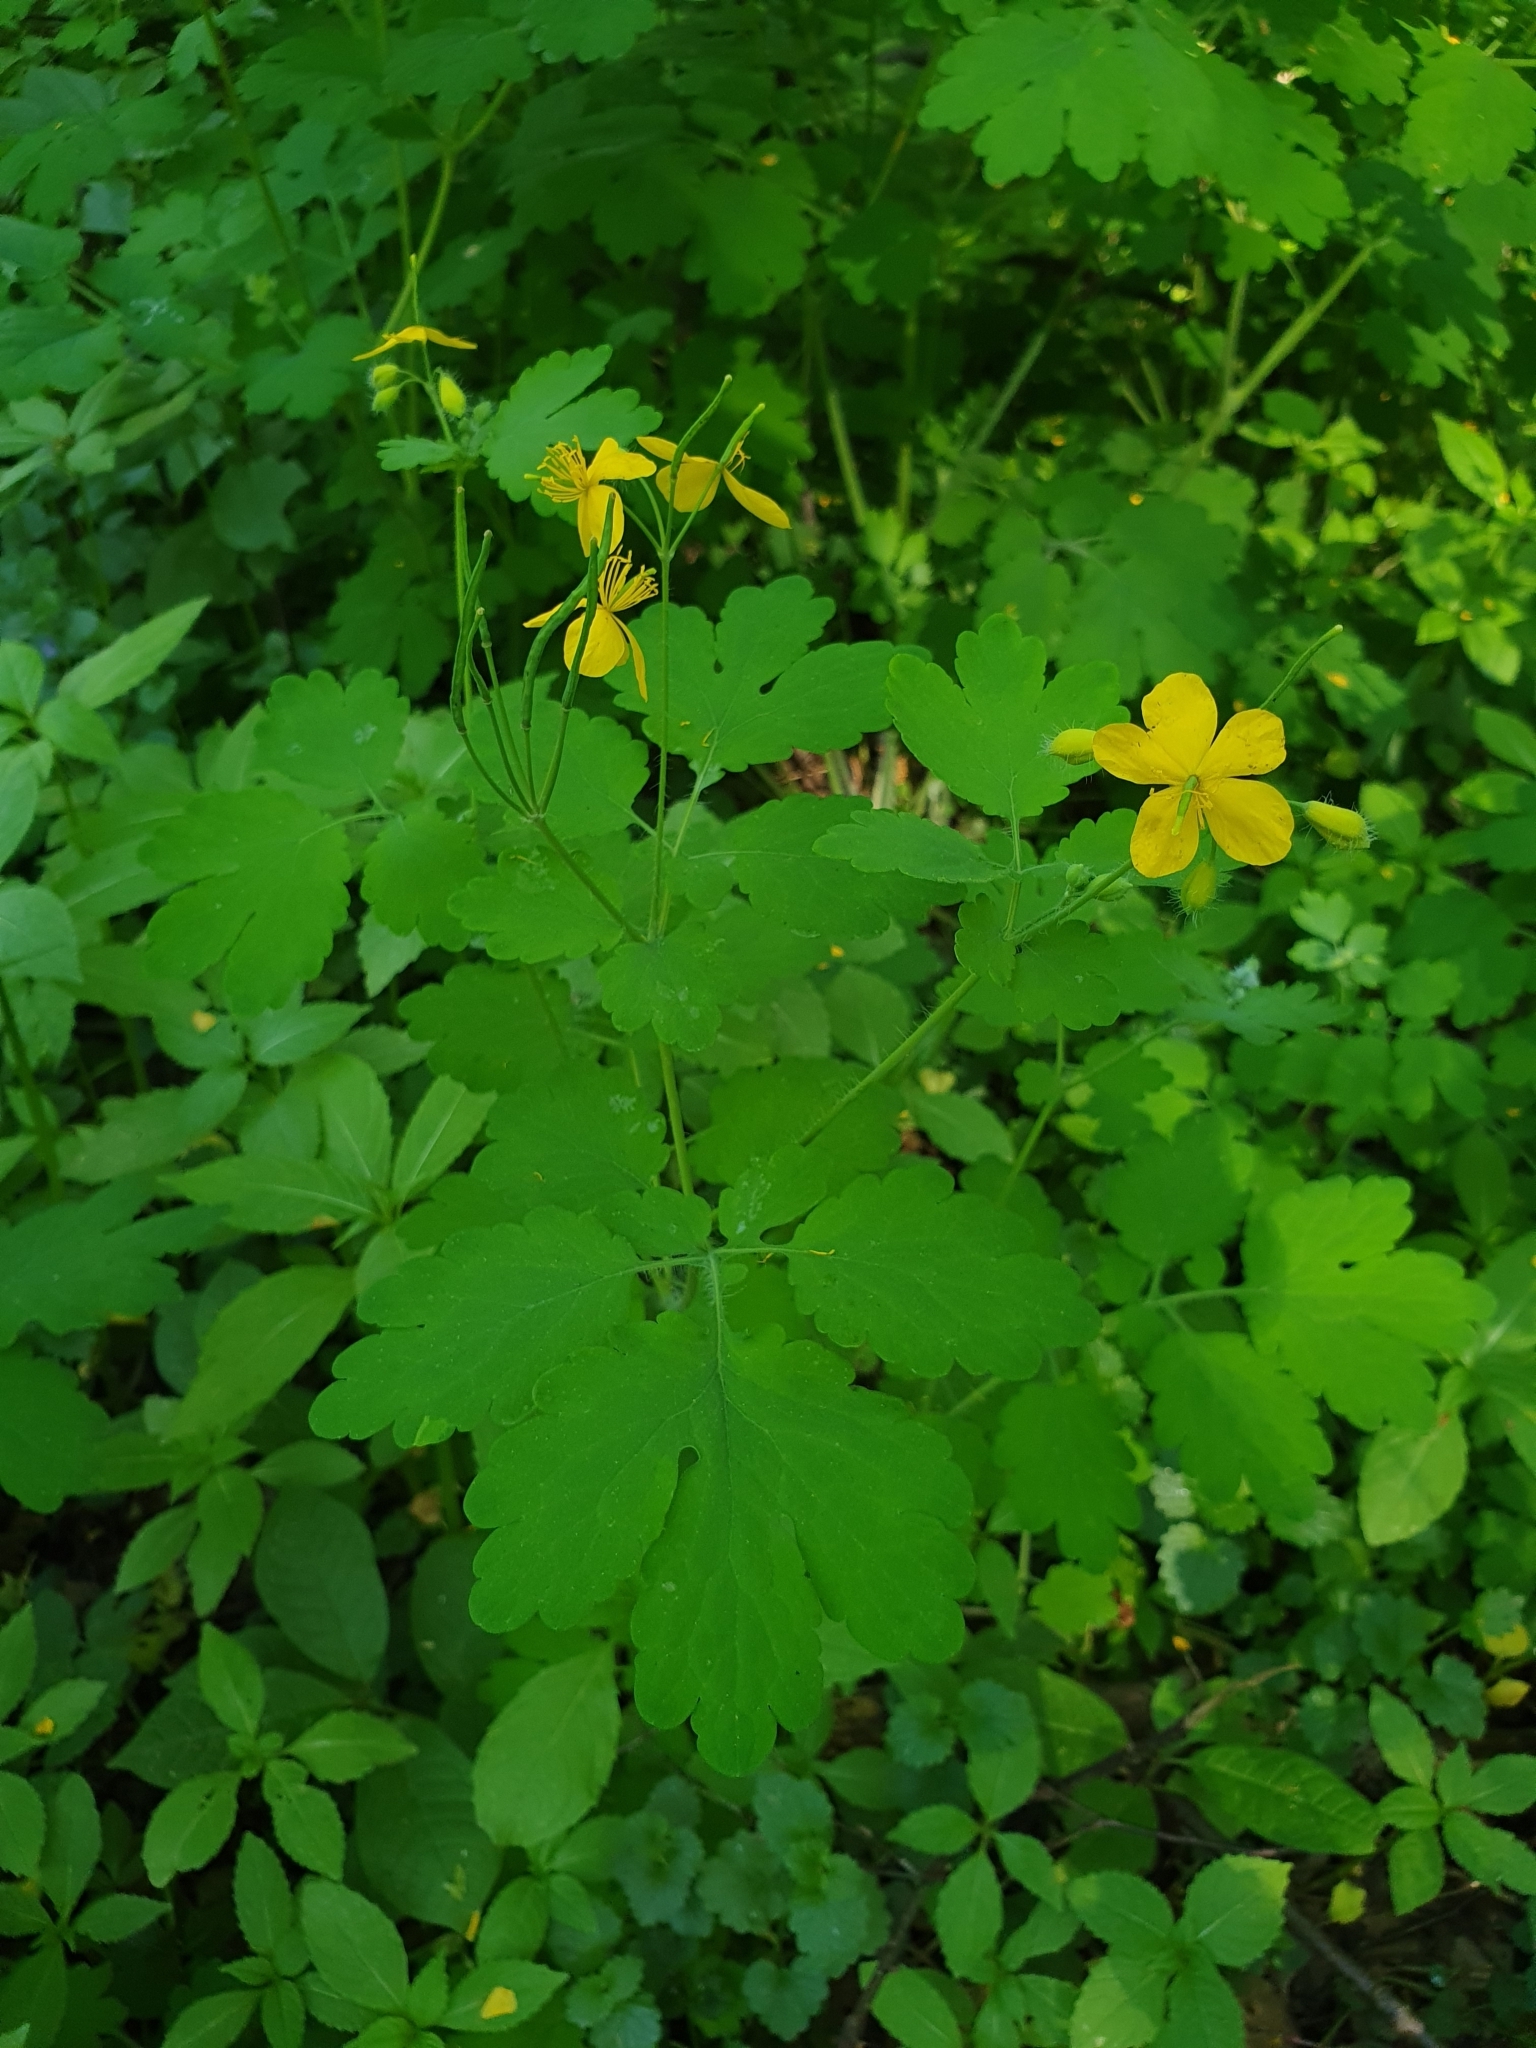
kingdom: Plantae
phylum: Tracheophyta
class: Magnoliopsida
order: Ranunculales
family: Papaveraceae
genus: Chelidonium
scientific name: Chelidonium majus
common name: Greater celandine
